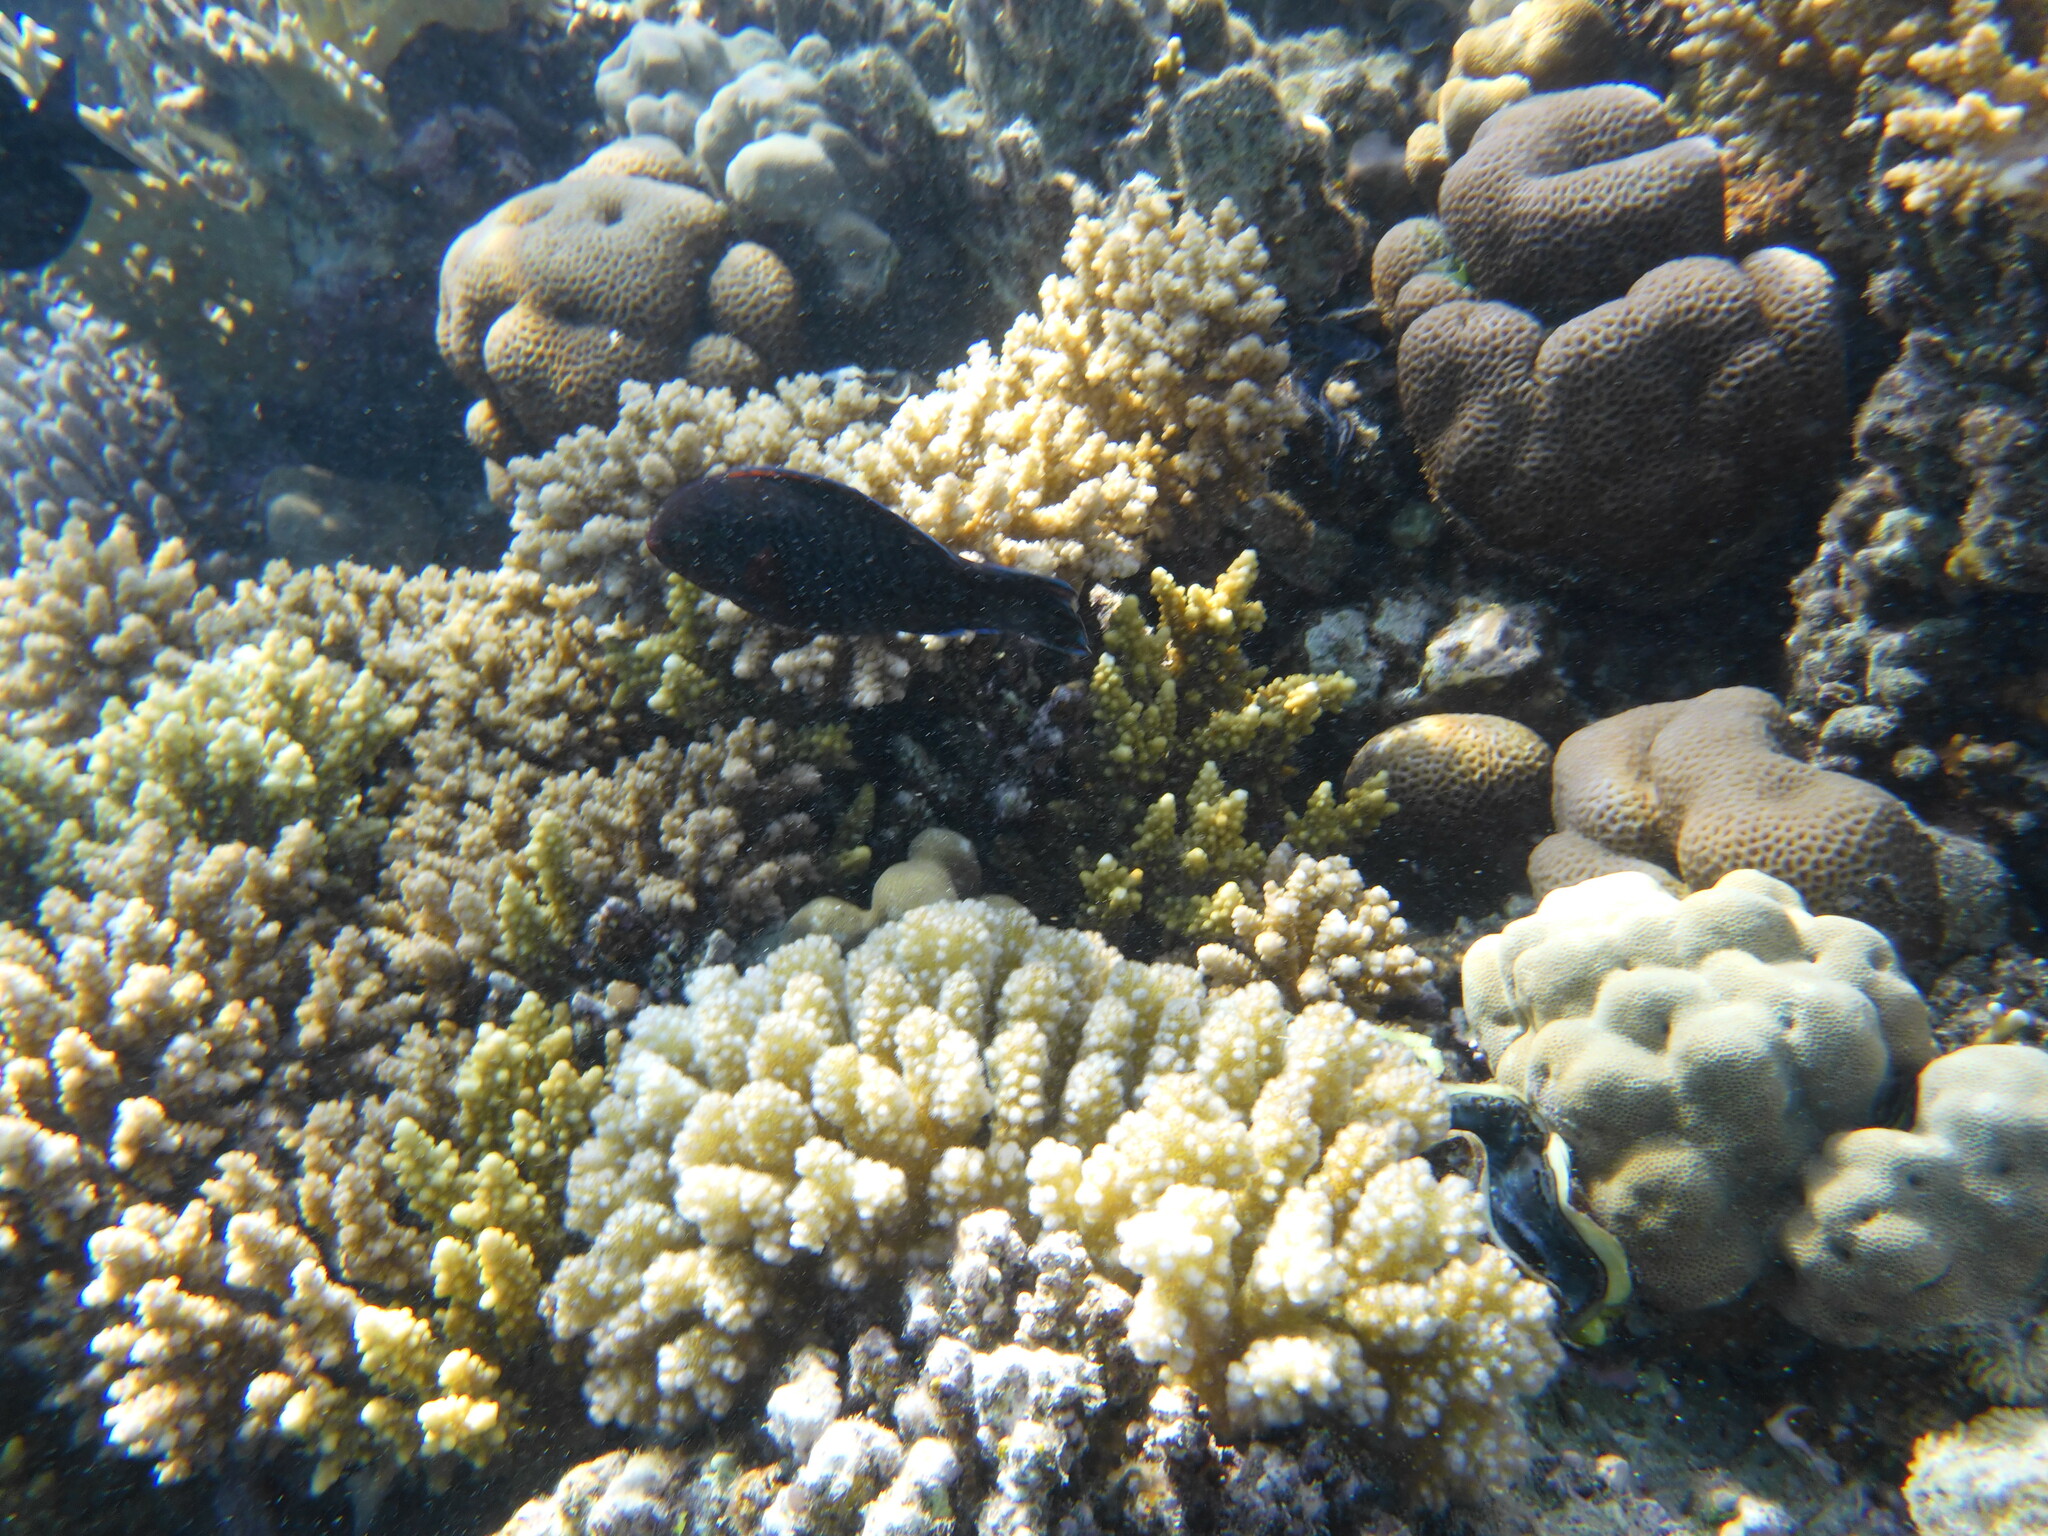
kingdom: Animalia
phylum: Chordata
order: Perciformes
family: Scaridae
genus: Scarus
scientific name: Scarus niger
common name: Dusky parrotfish
